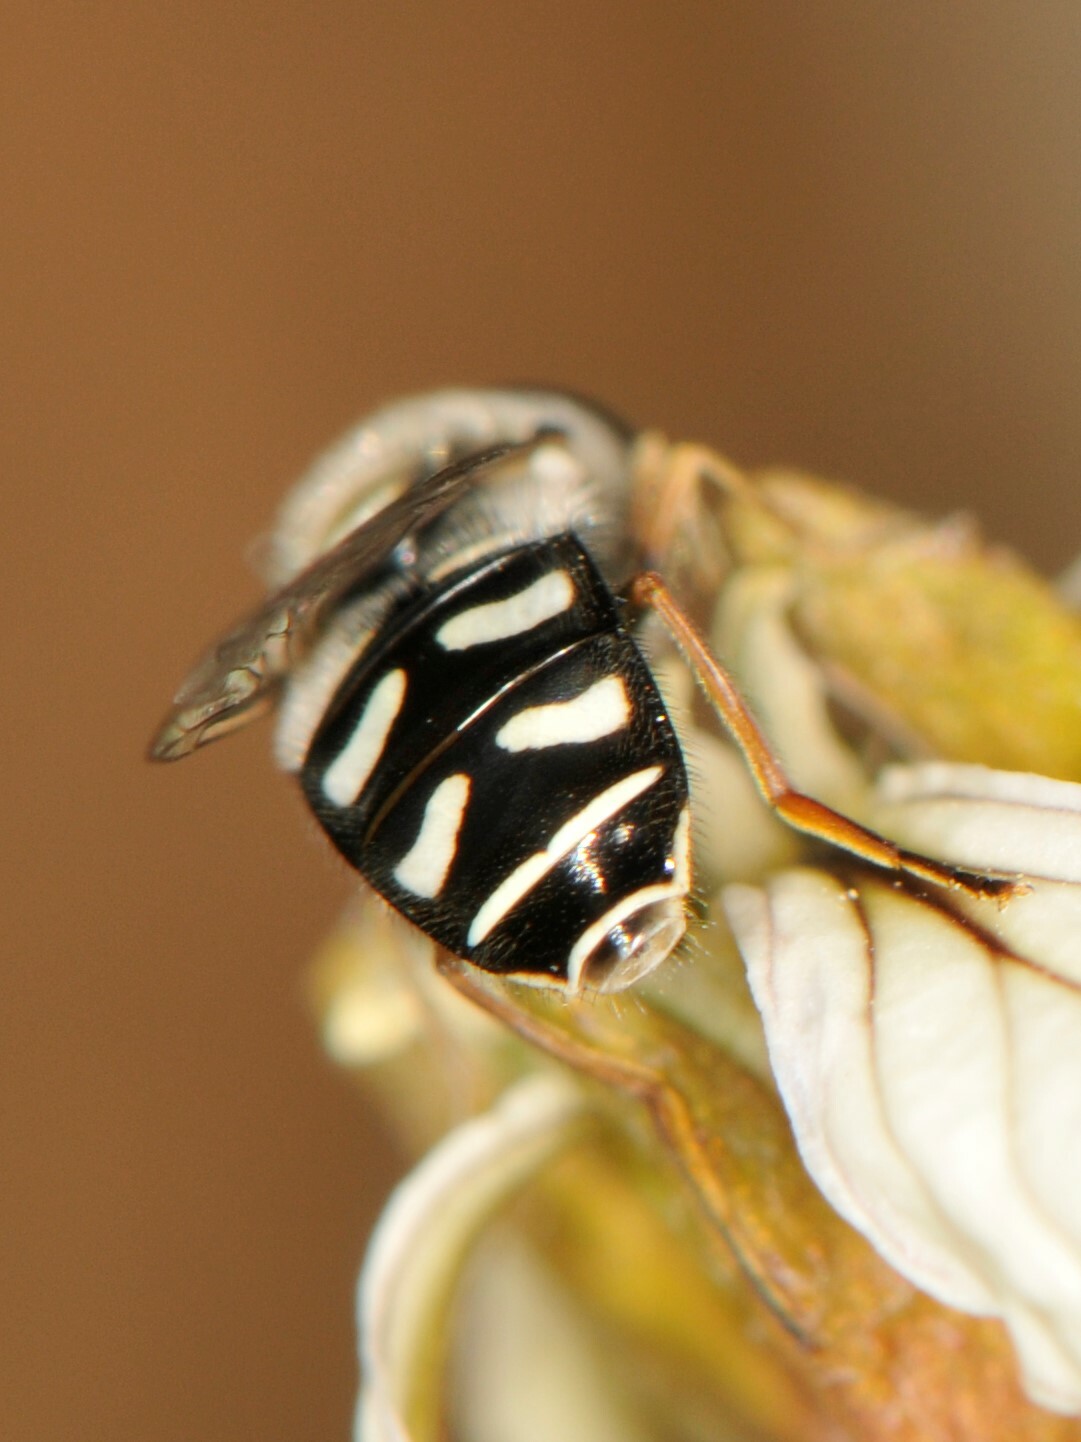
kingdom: Animalia
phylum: Arthropoda
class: Insecta
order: Diptera
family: Syrphidae
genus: Eupeodes
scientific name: Eupeodes volucris
